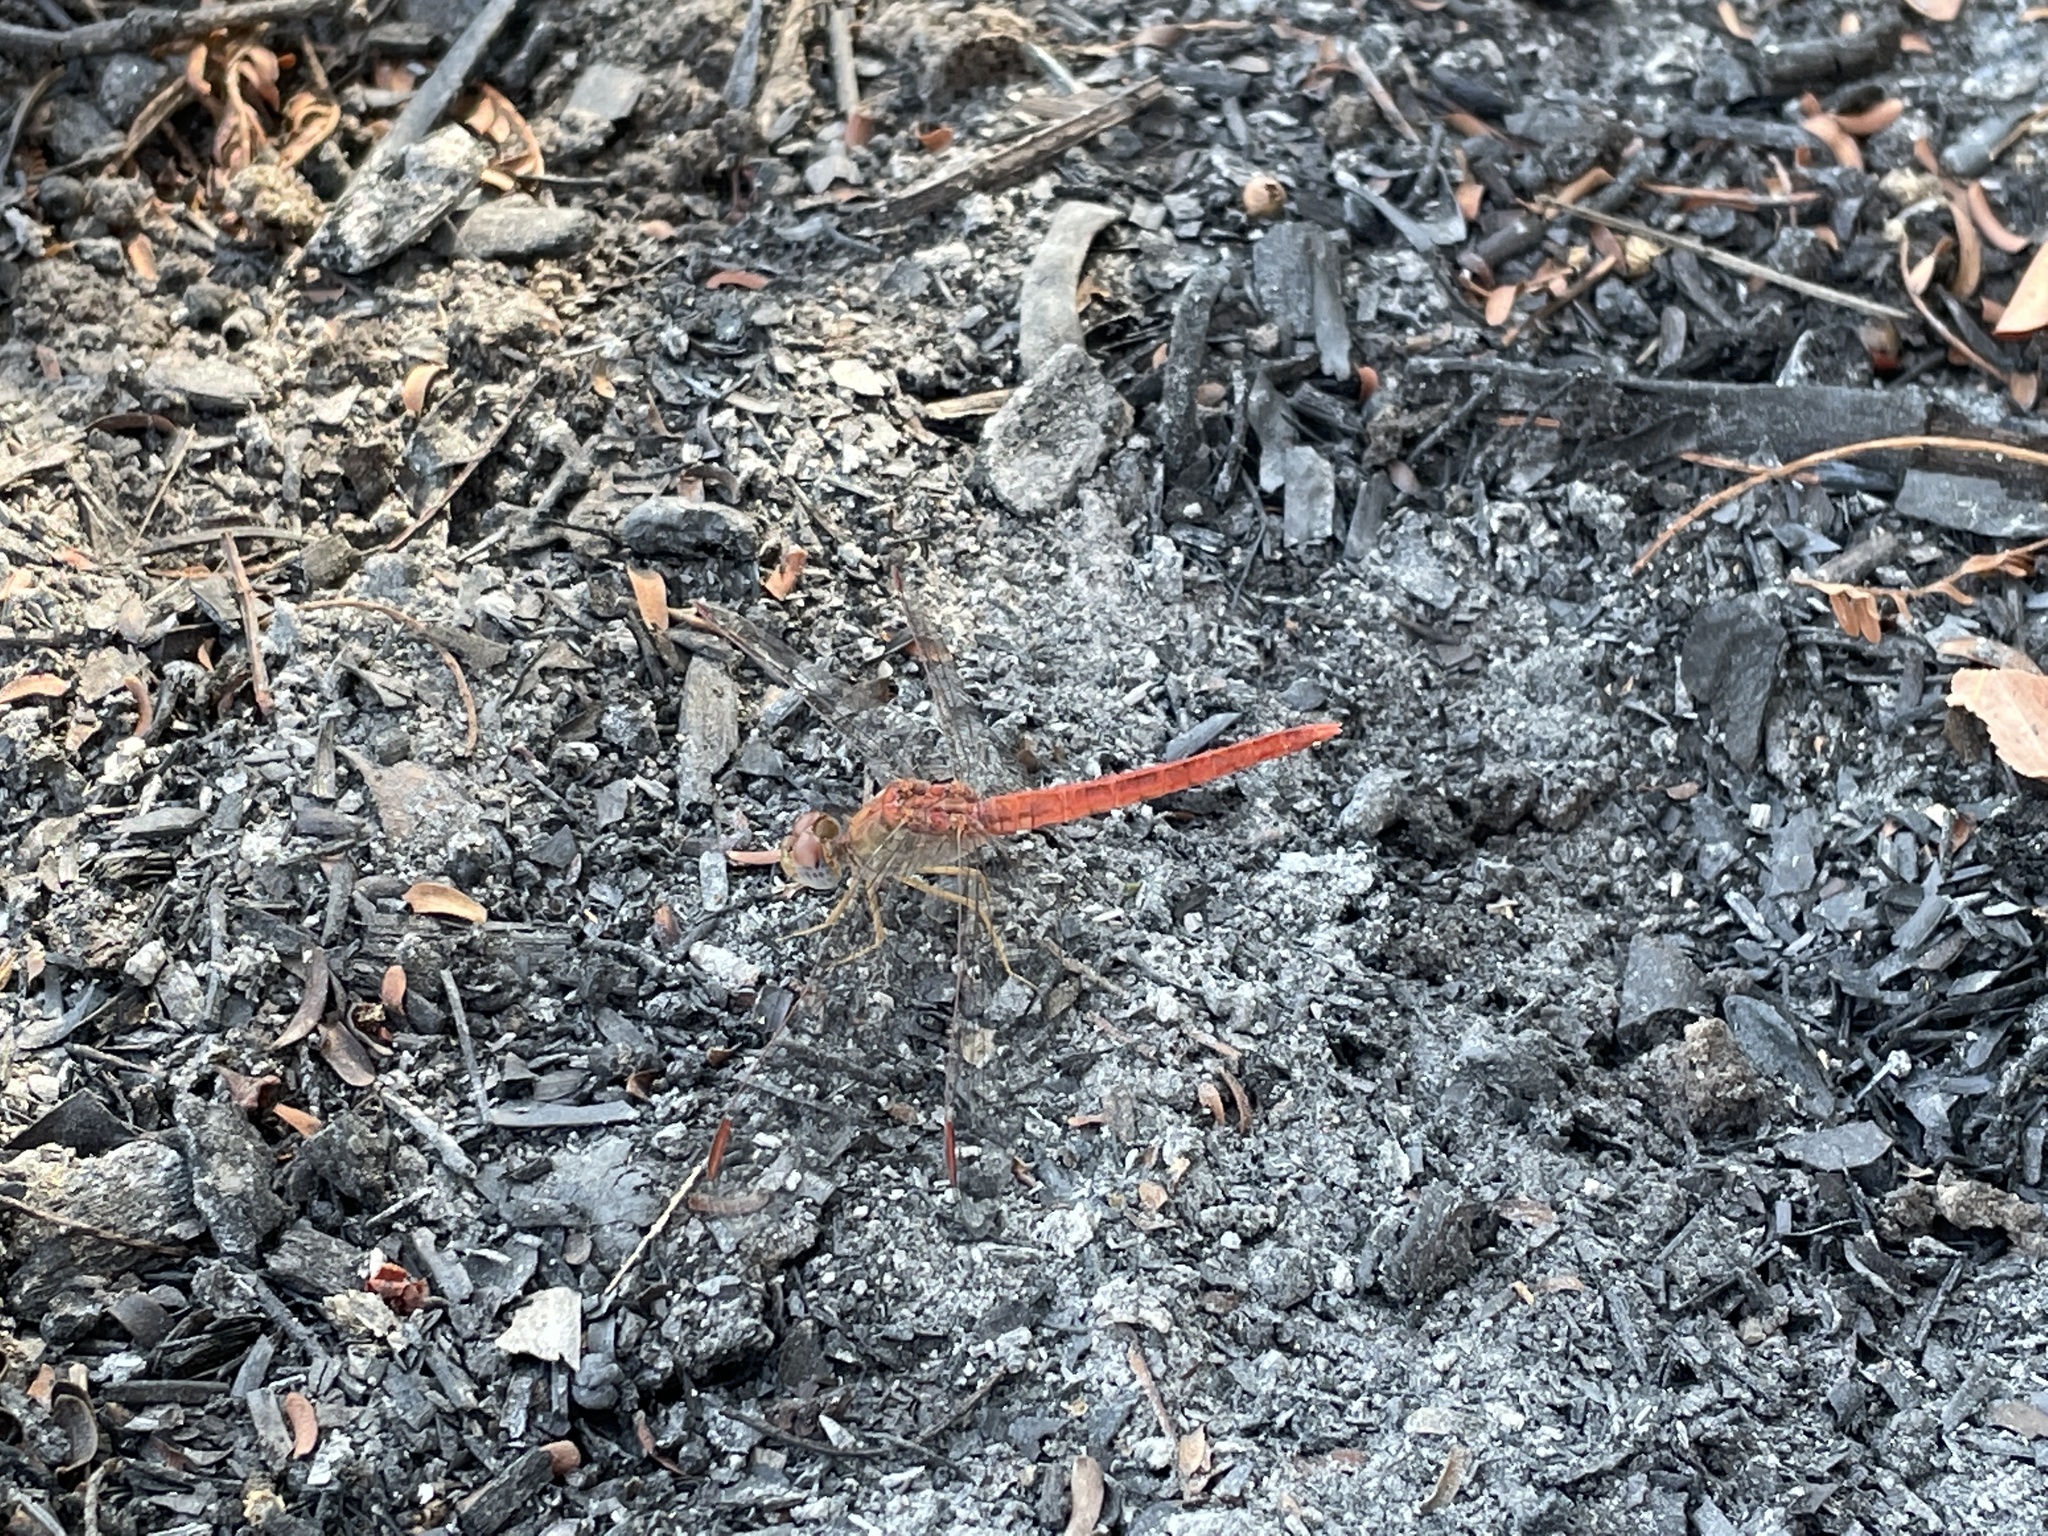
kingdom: Animalia
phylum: Arthropoda
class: Insecta
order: Odonata
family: Libellulidae
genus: Crocothemis
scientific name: Crocothemis divisa
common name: Divisa scarlet
